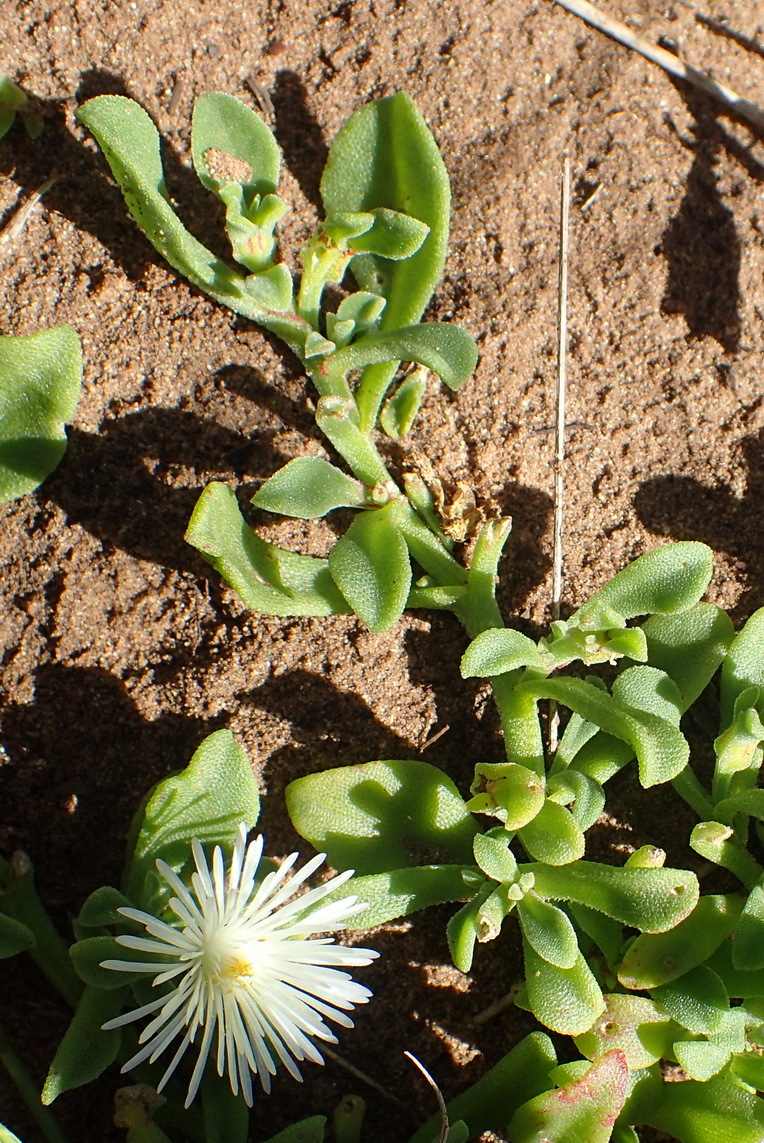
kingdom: Plantae
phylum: Tracheophyta
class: Magnoliopsida
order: Caryophyllales
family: Aizoaceae
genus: Mesembryanthemum
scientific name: Mesembryanthemum aitonis
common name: Angled iceplant
